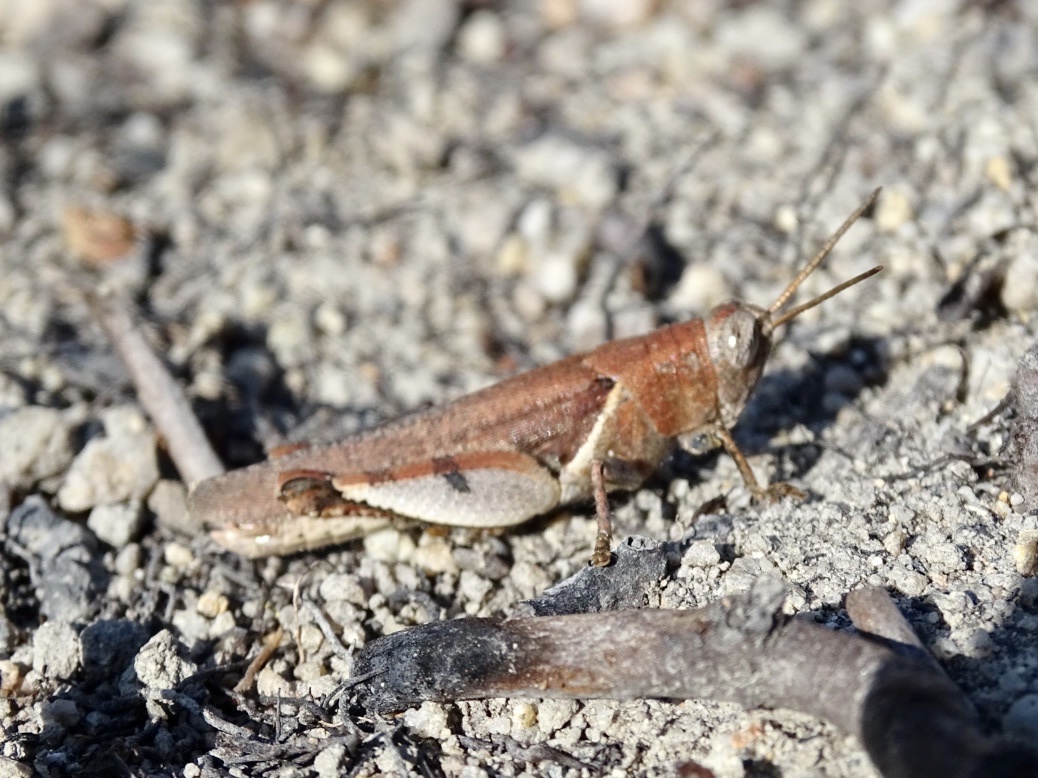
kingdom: Animalia
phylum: Arthropoda
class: Insecta
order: Orthoptera
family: Acrididae
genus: Diabolocatantops
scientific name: Diabolocatantops pinguis
